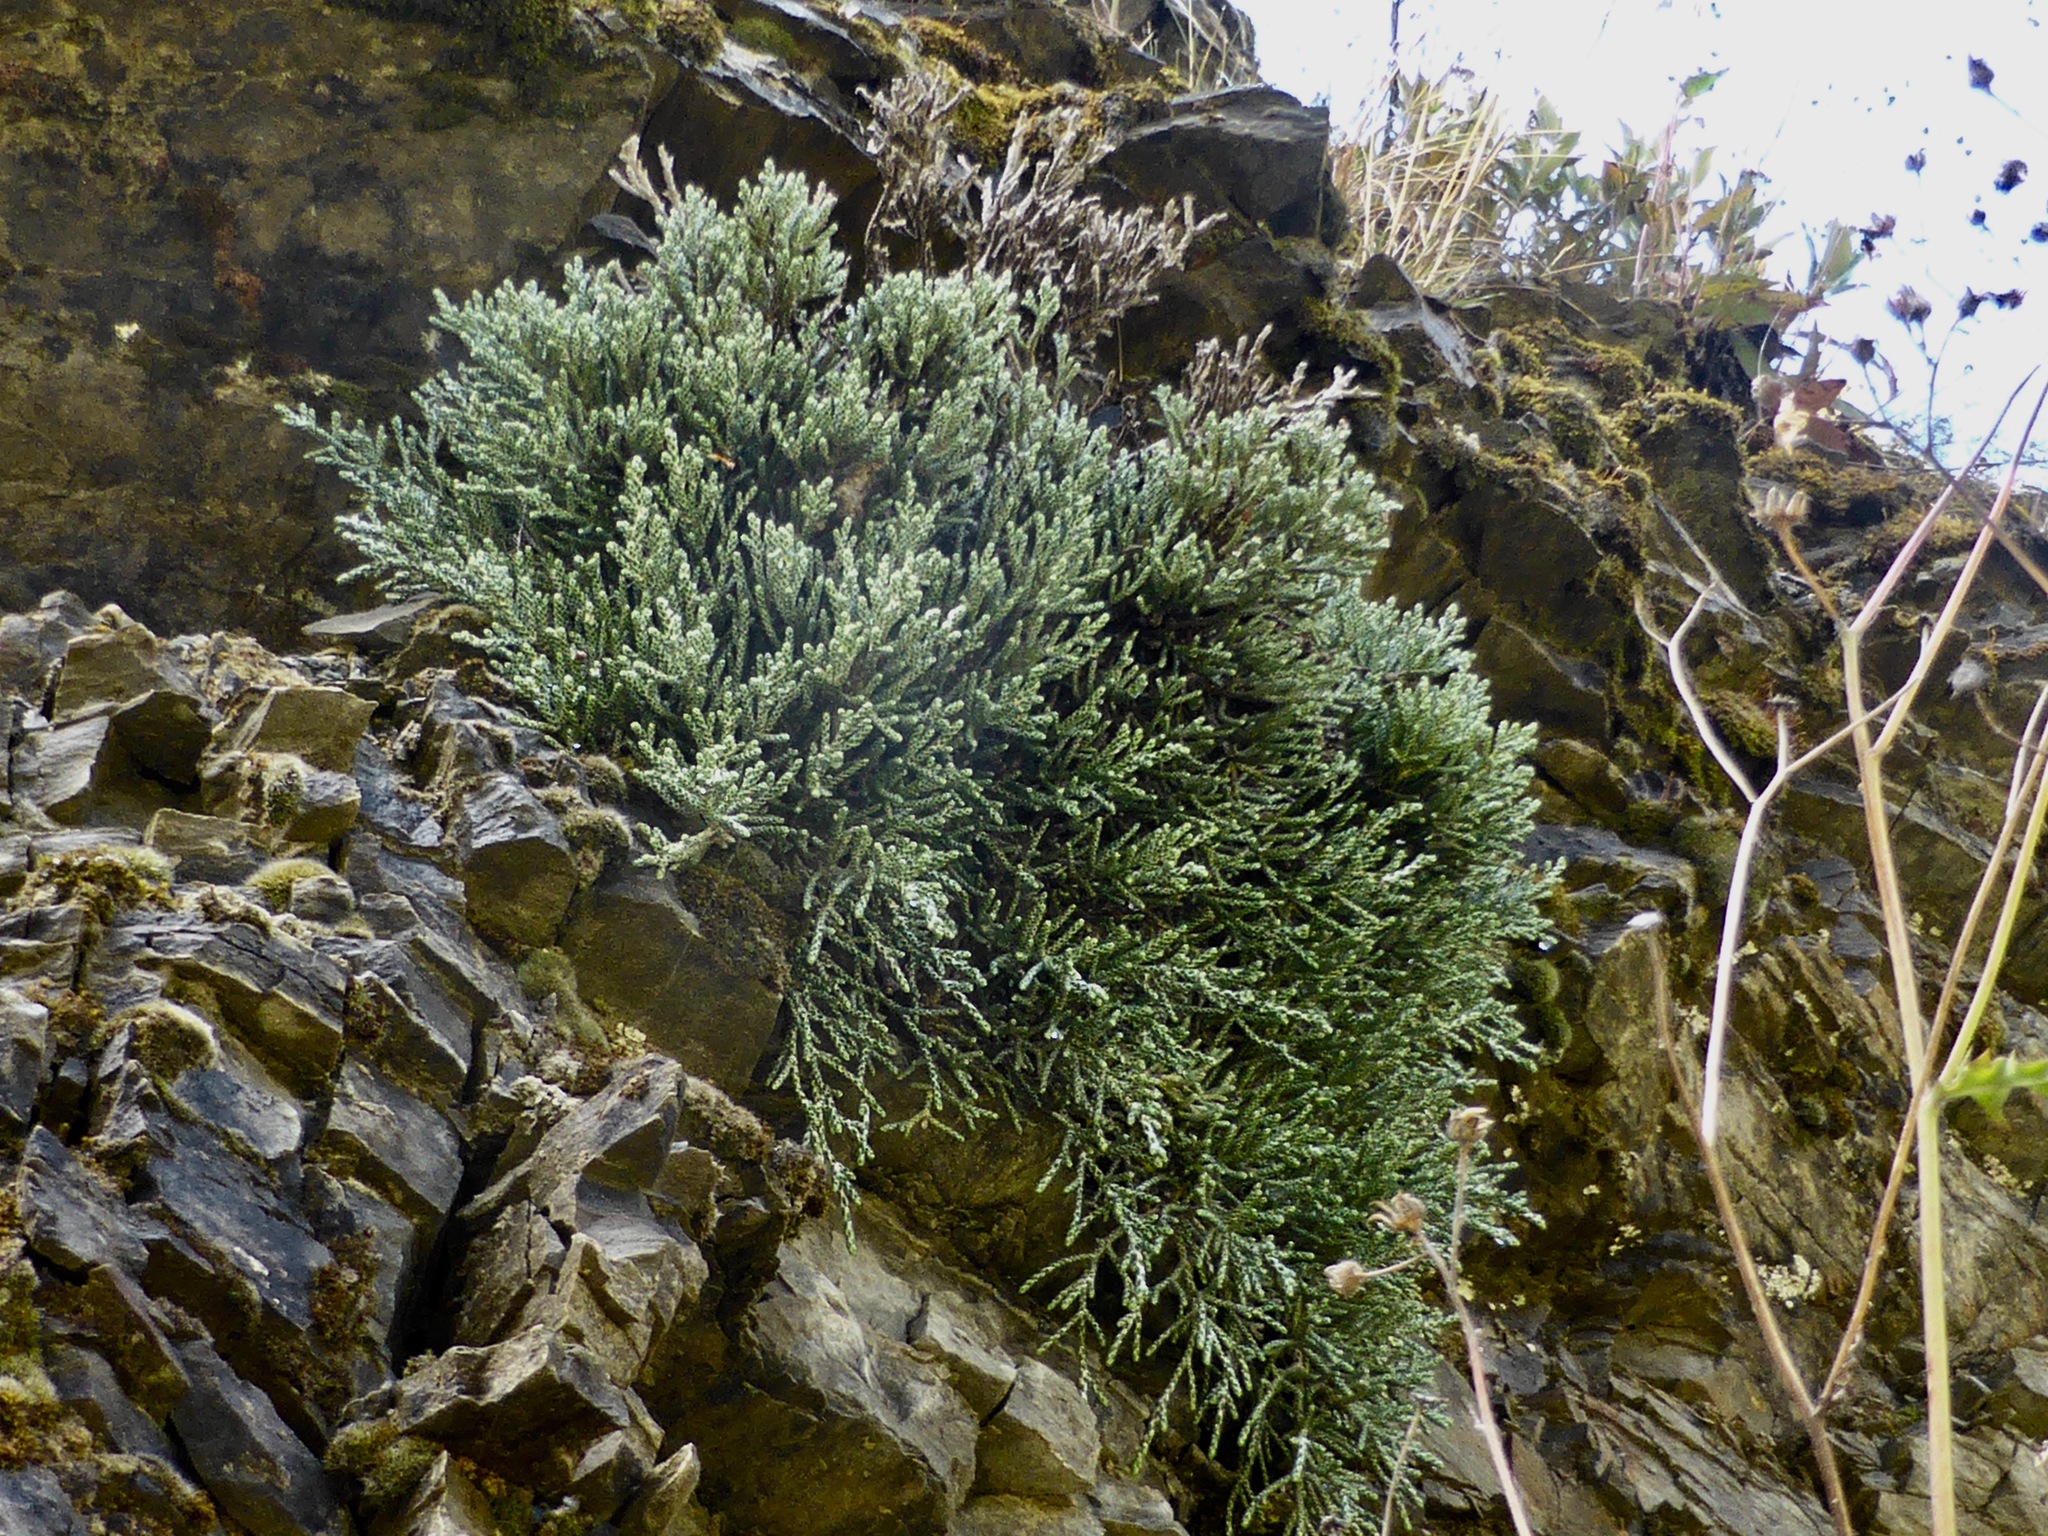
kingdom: Plantae
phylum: Tracheophyta
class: Magnoliopsida
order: Asterales
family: Asteraceae
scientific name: Asteraceae
